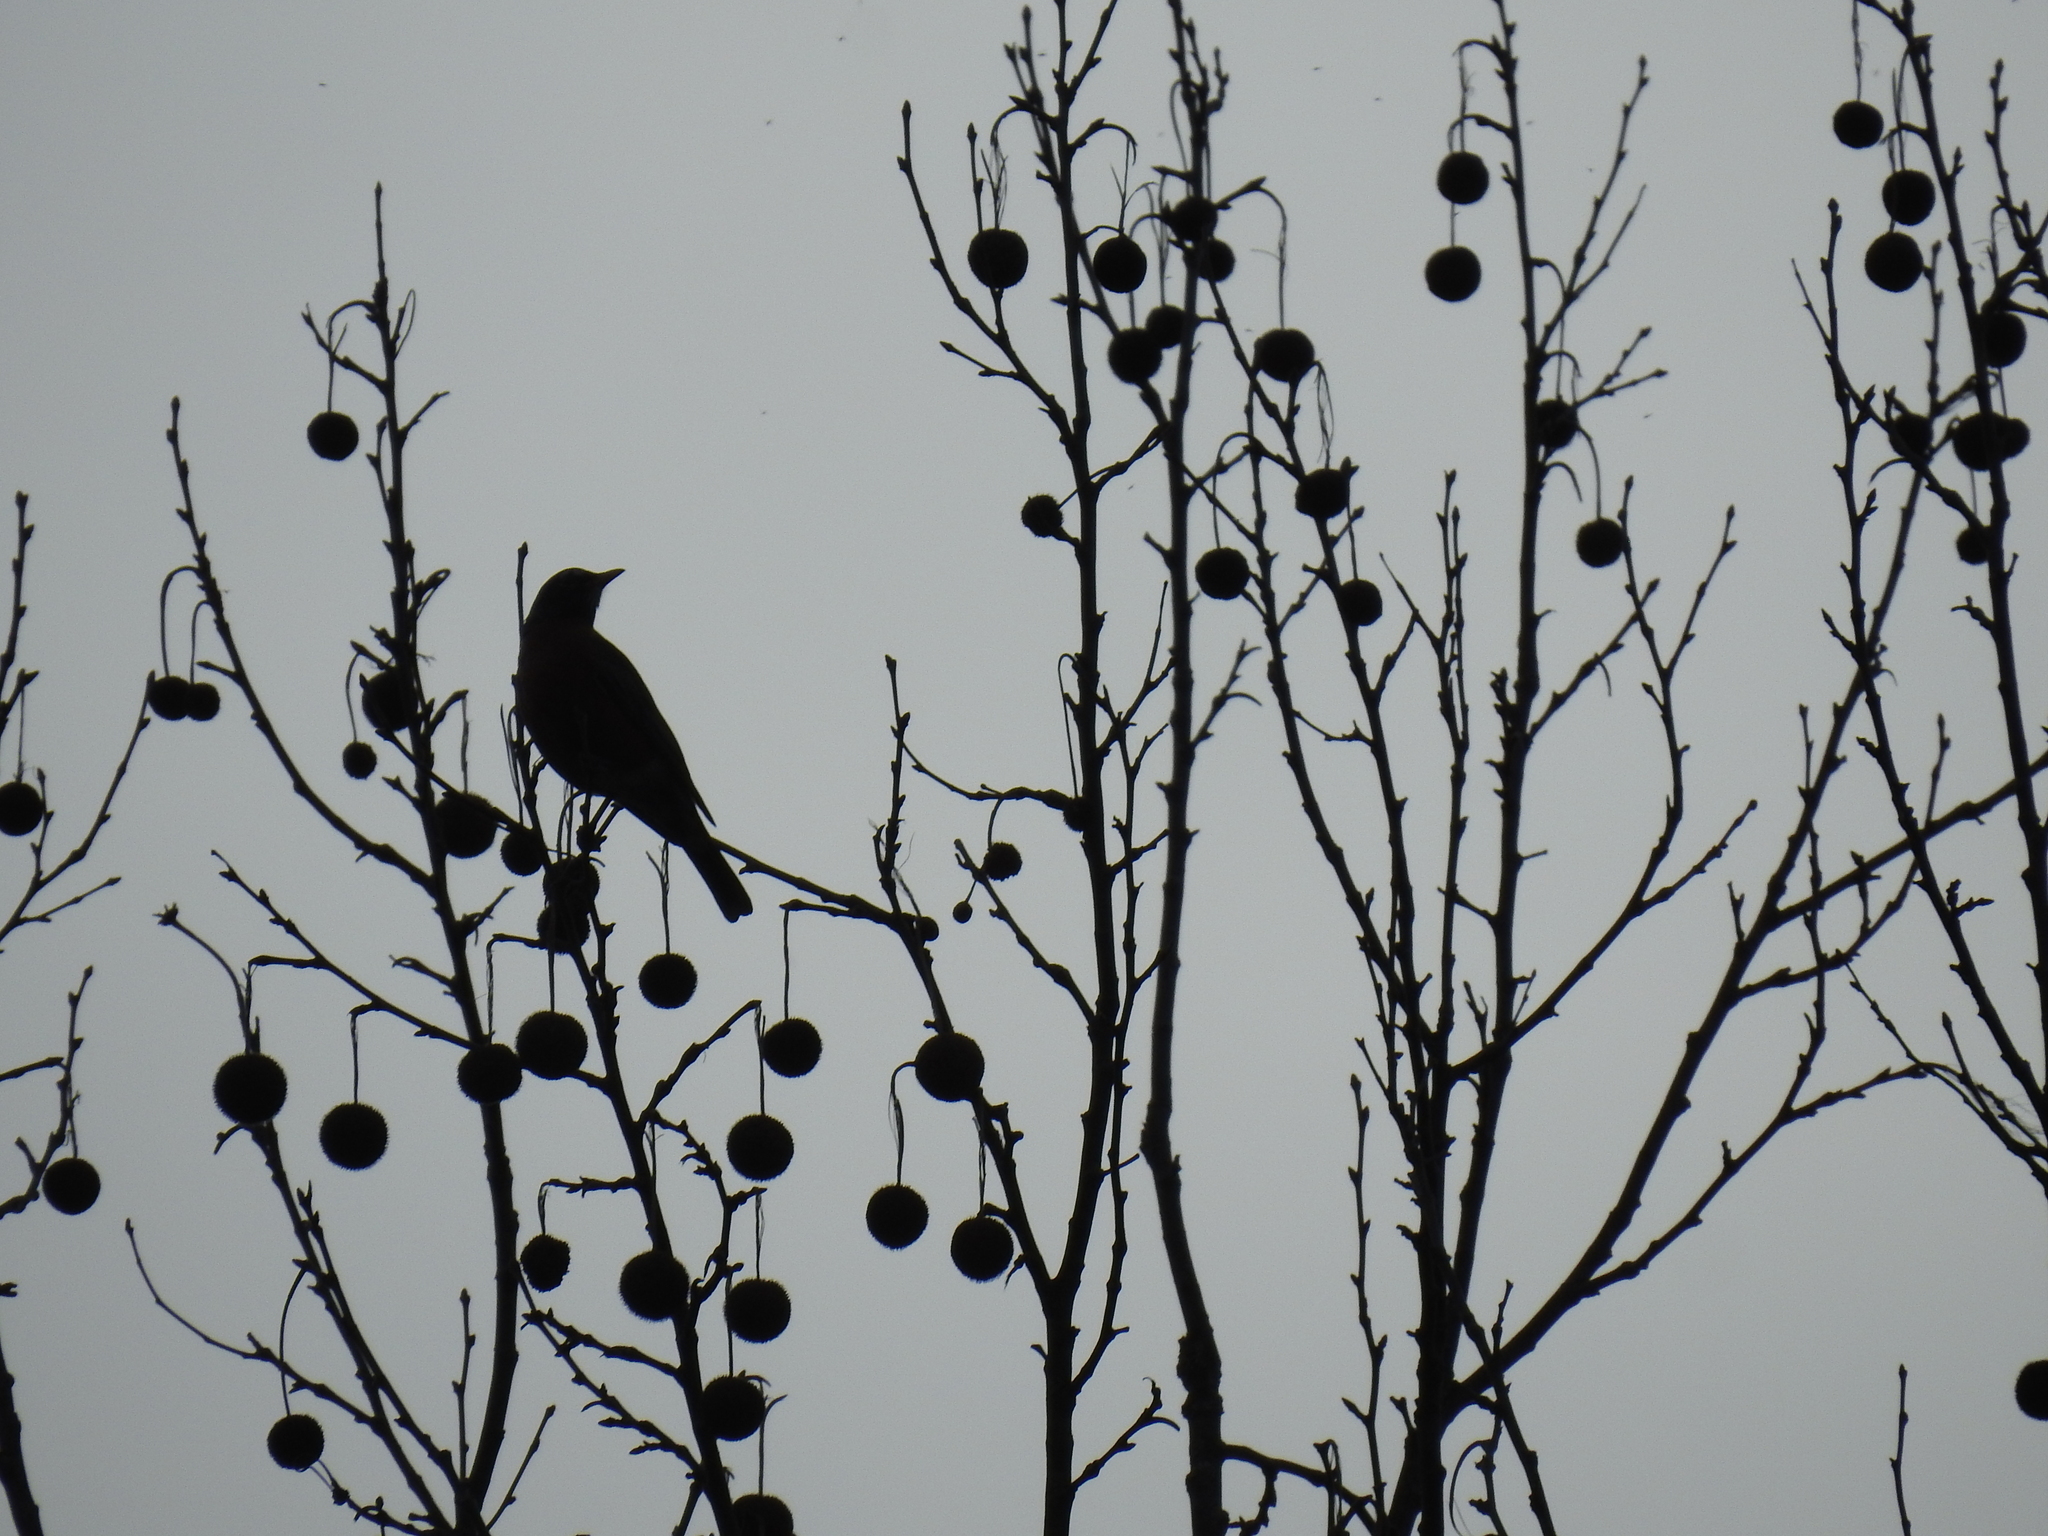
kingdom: Animalia
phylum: Chordata
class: Aves
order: Passeriformes
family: Turdidae
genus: Turdus
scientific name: Turdus migratorius
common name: American robin
